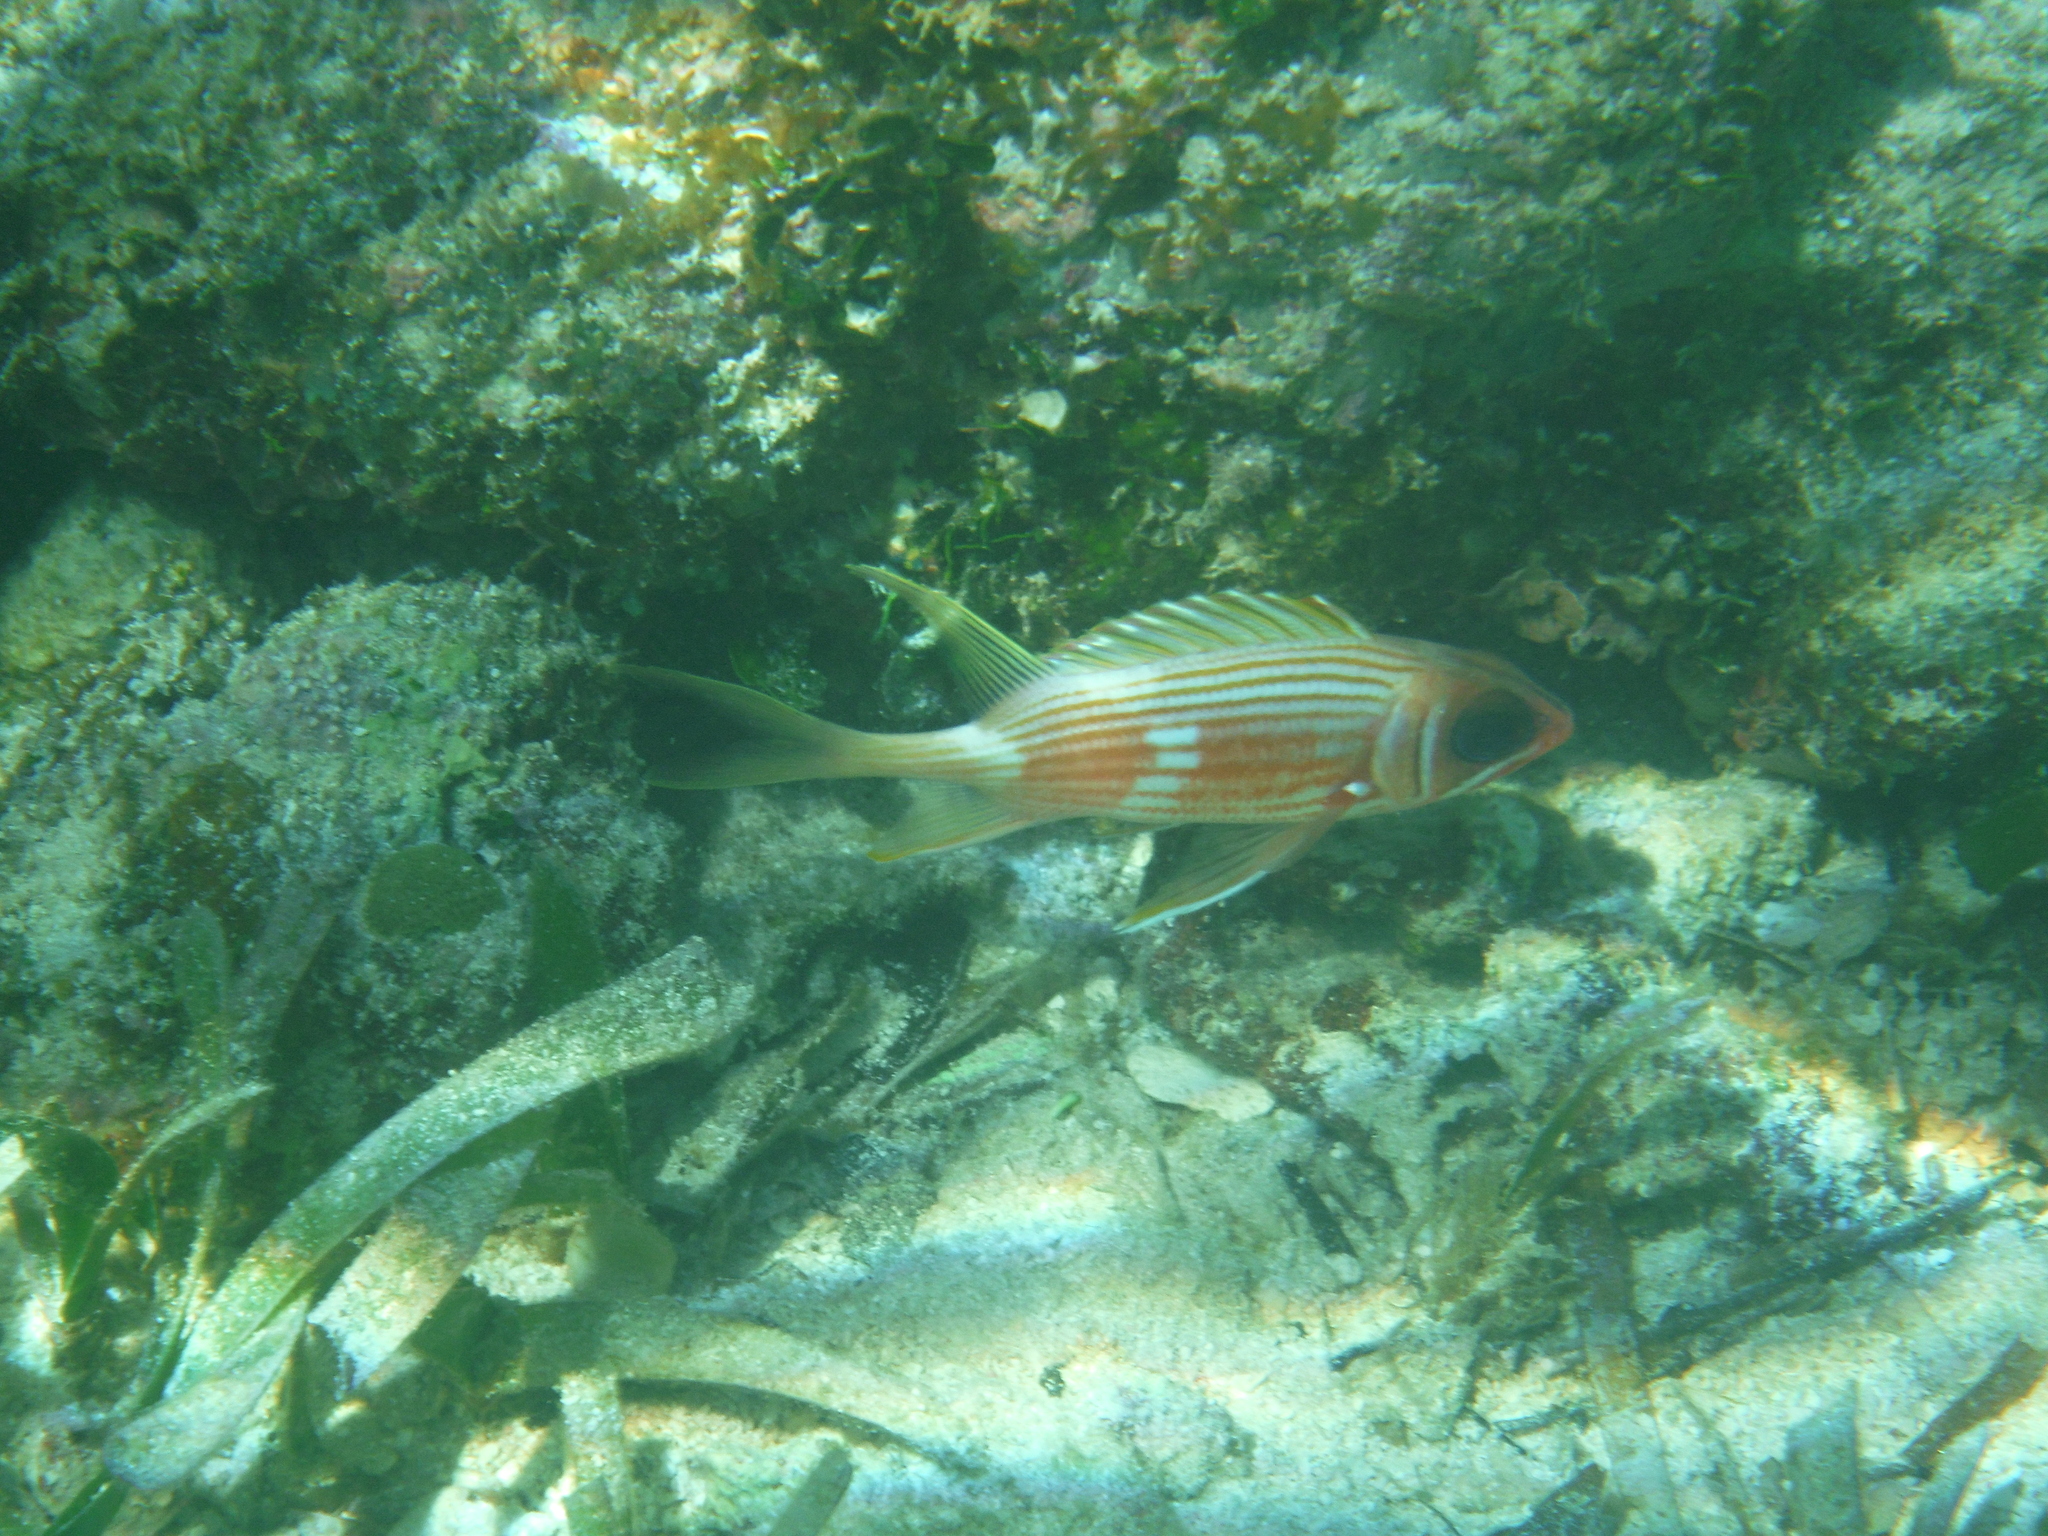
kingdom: Animalia
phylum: Chordata
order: Beryciformes
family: Holocentridae
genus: Holocentrus
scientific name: Holocentrus rufus
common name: Longspine squirrelfish
